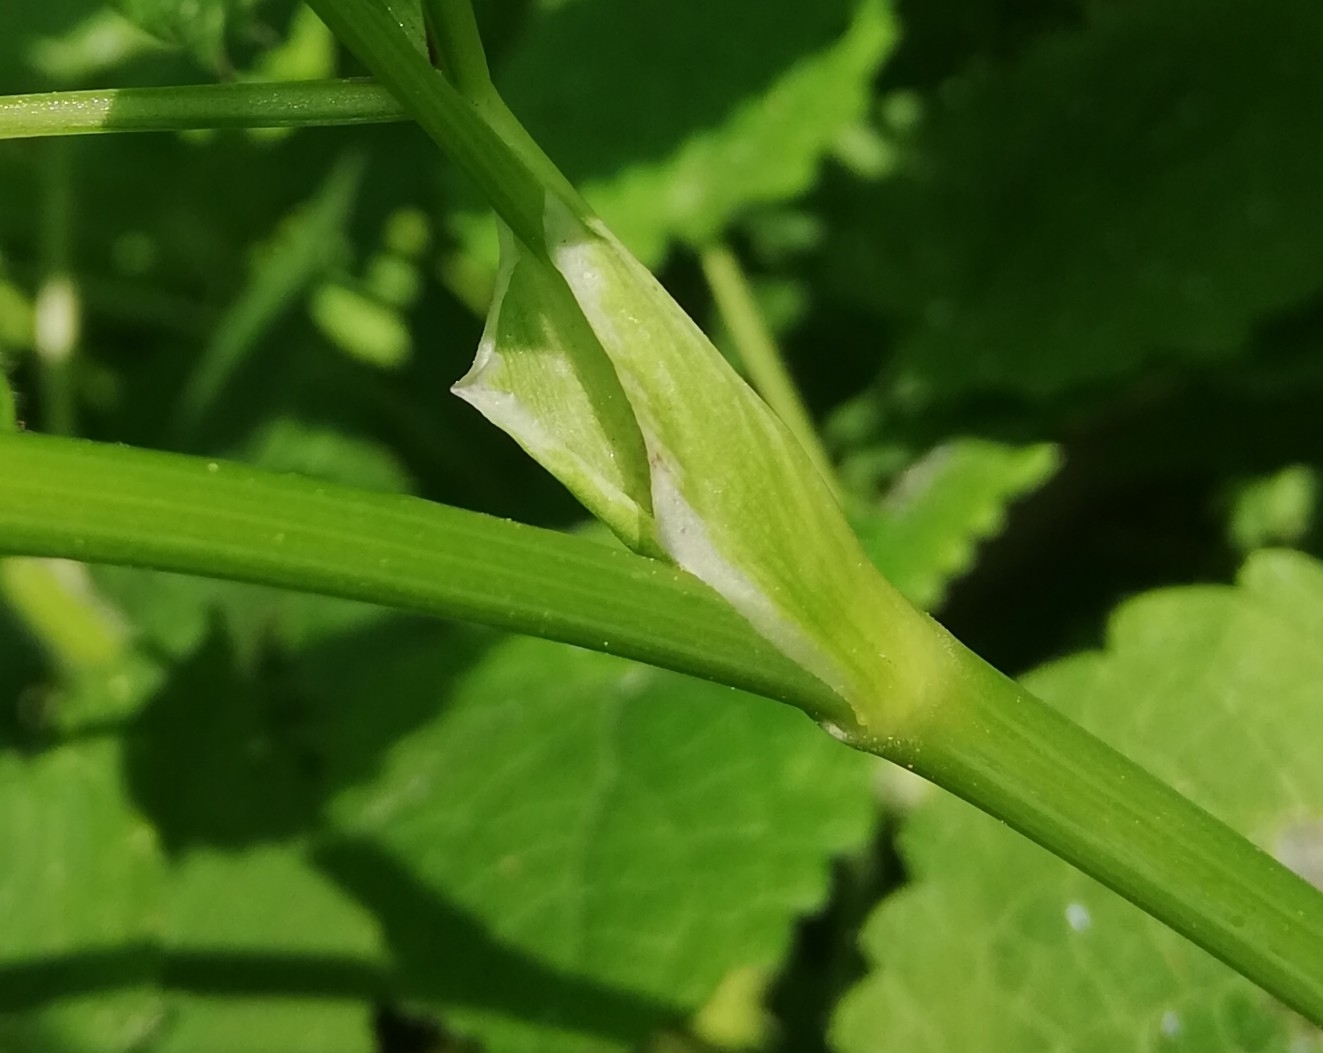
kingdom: Plantae
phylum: Tracheophyta
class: Magnoliopsida
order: Apiales
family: Apiaceae
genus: Aegopodium
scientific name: Aegopodium podagraria
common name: Ground-elder
